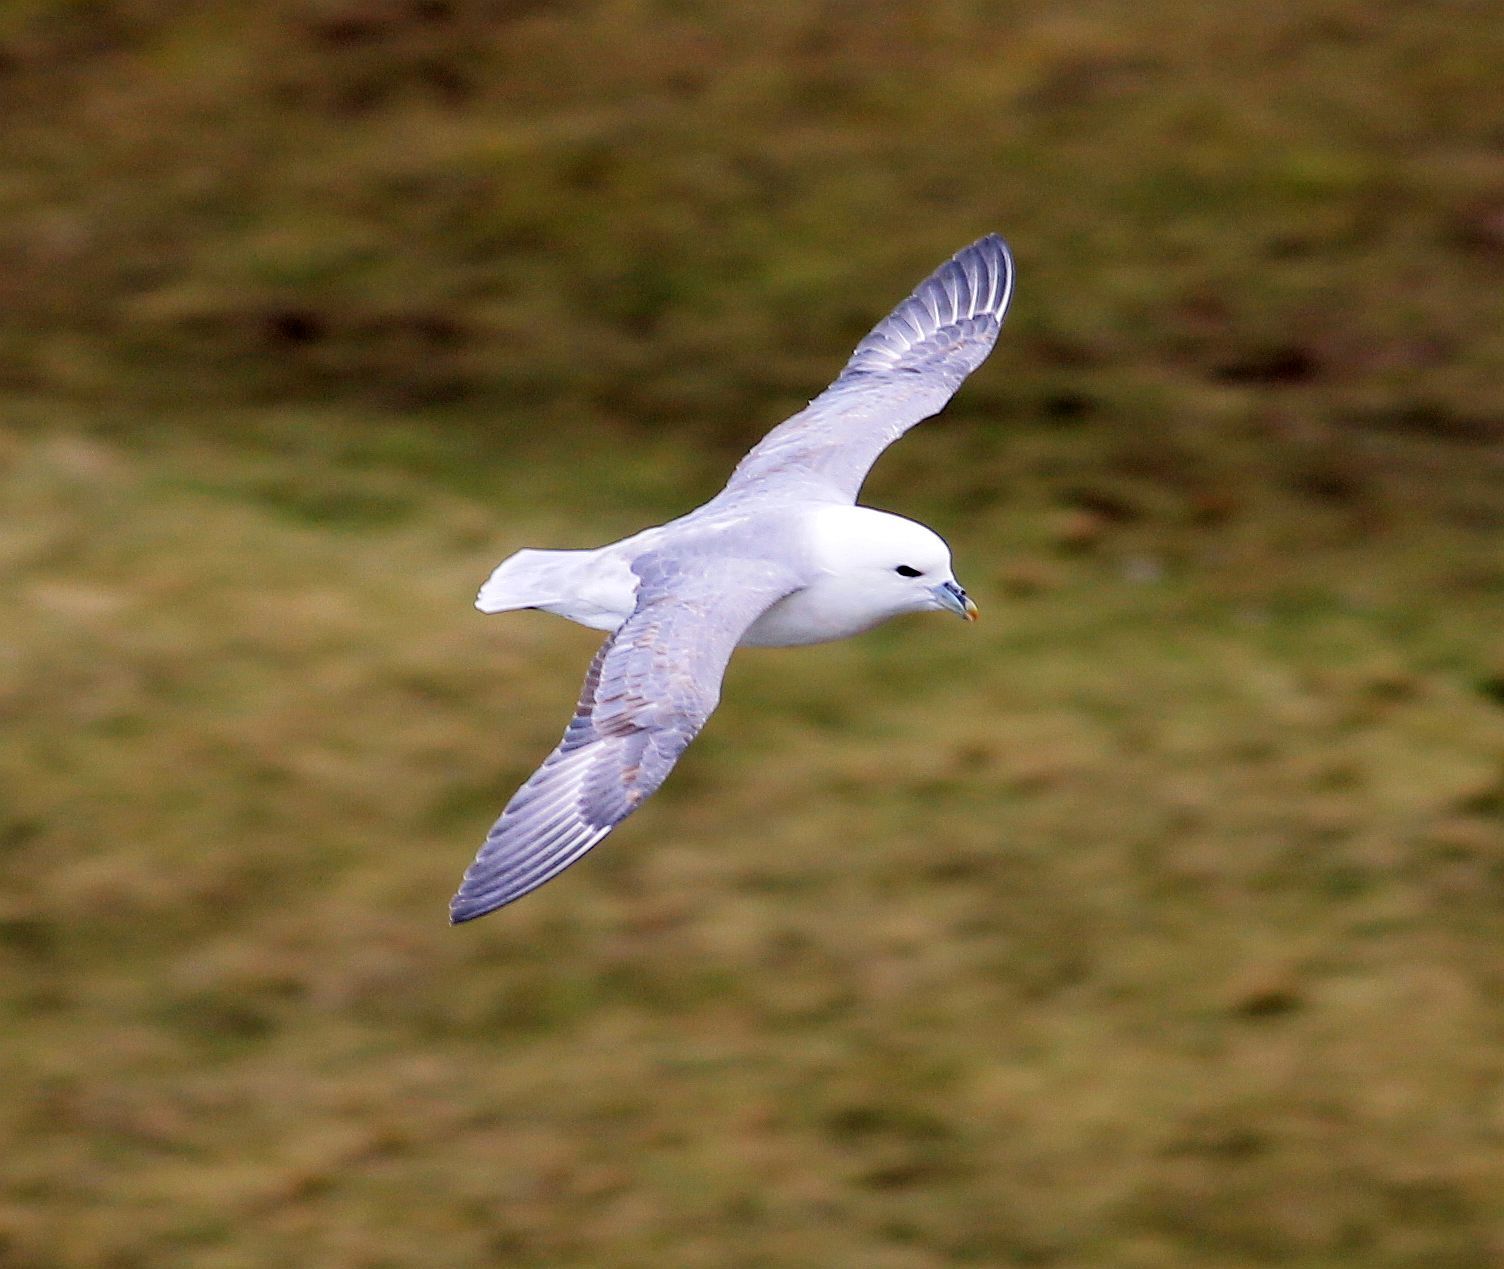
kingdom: Animalia
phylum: Chordata
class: Aves
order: Procellariiformes
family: Procellariidae
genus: Fulmarus
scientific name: Fulmarus glacialis
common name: Northern fulmar
